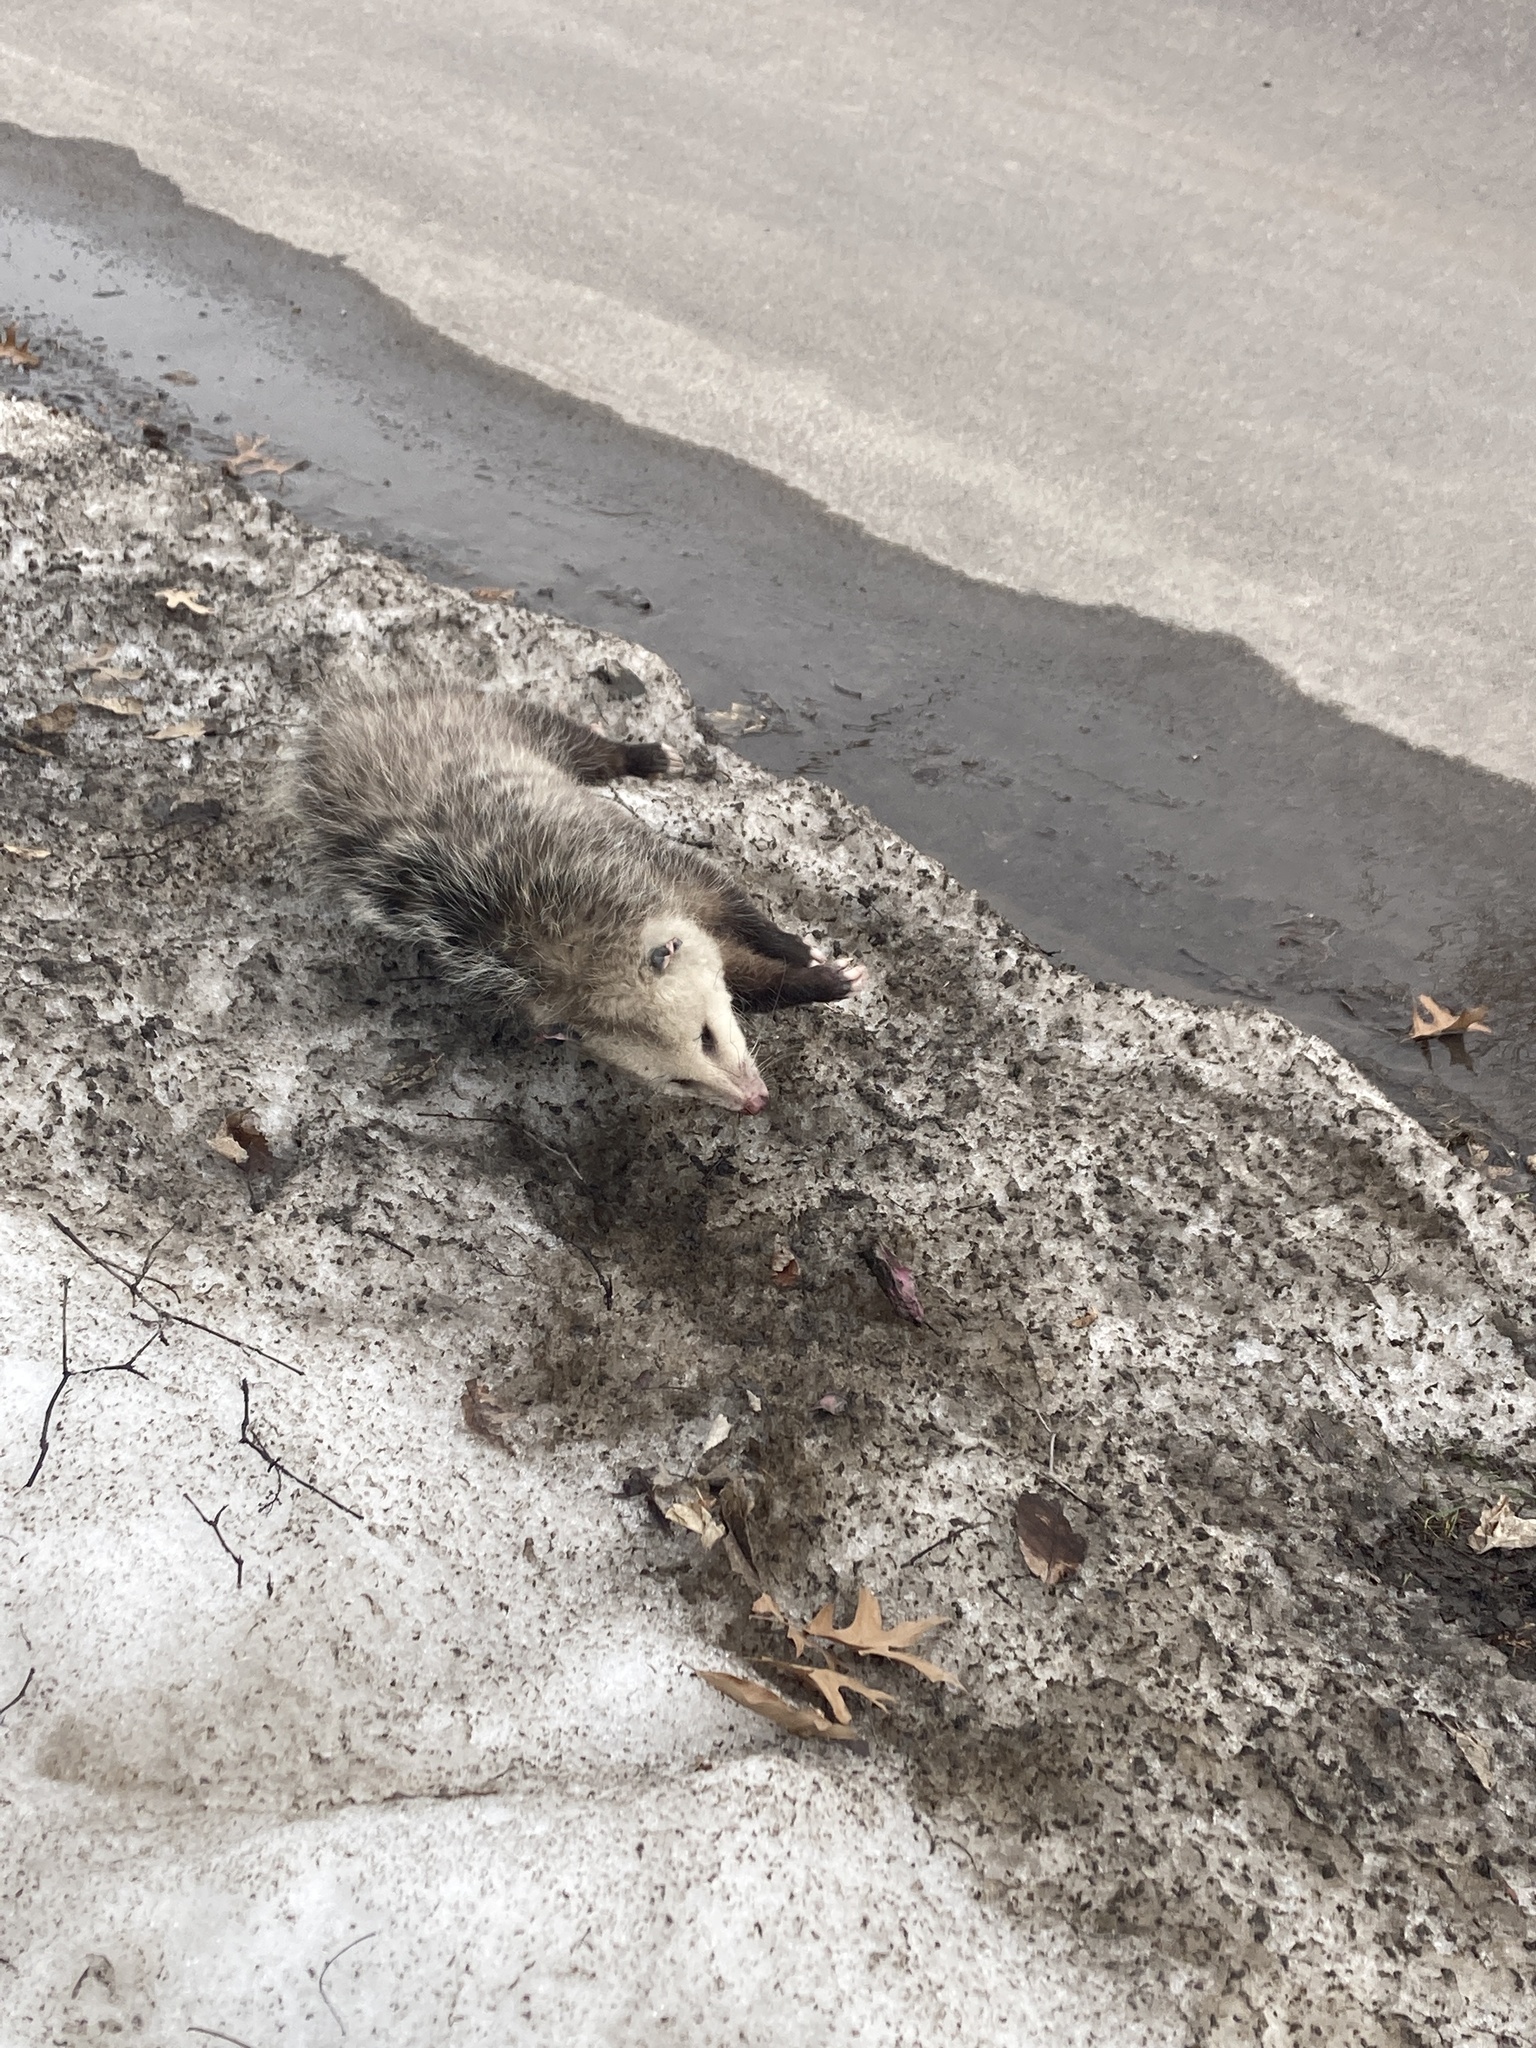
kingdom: Animalia
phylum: Chordata
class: Mammalia
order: Didelphimorphia
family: Didelphidae
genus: Didelphis
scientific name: Didelphis virginiana
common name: Virginia opossum
